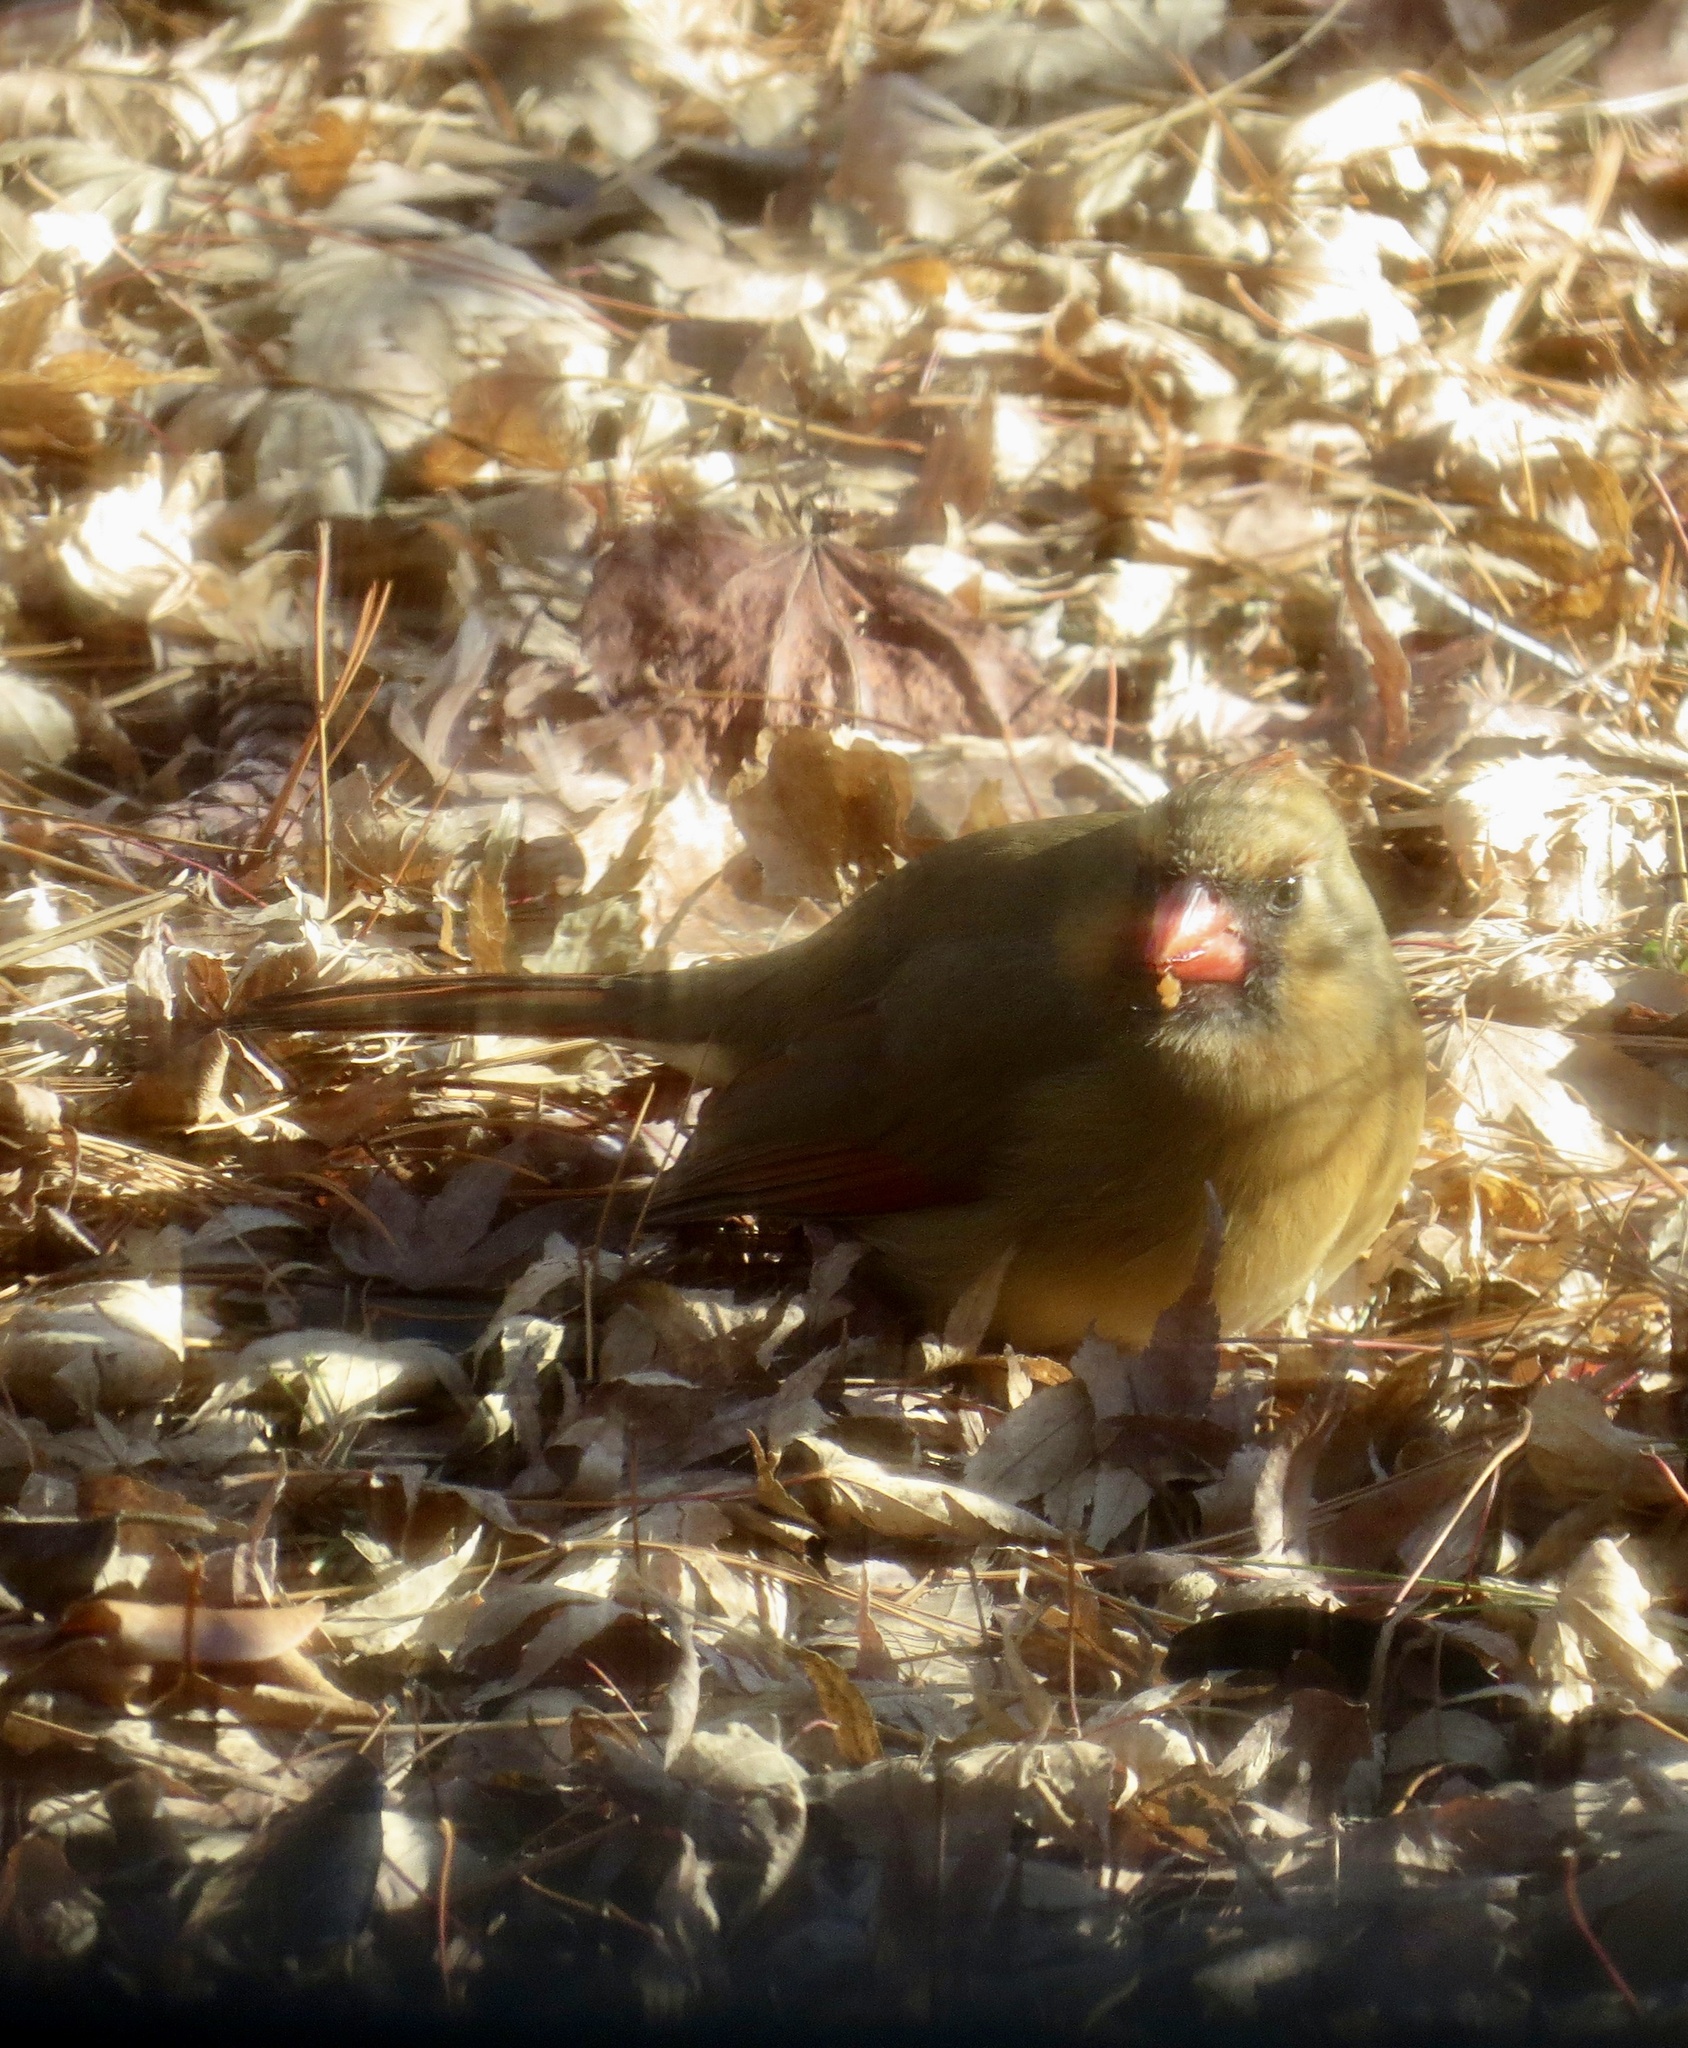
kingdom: Animalia
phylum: Chordata
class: Aves
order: Passeriformes
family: Cardinalidae
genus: Cardinalis
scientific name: Cardinalis cardinalis
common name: Northern cardinal
